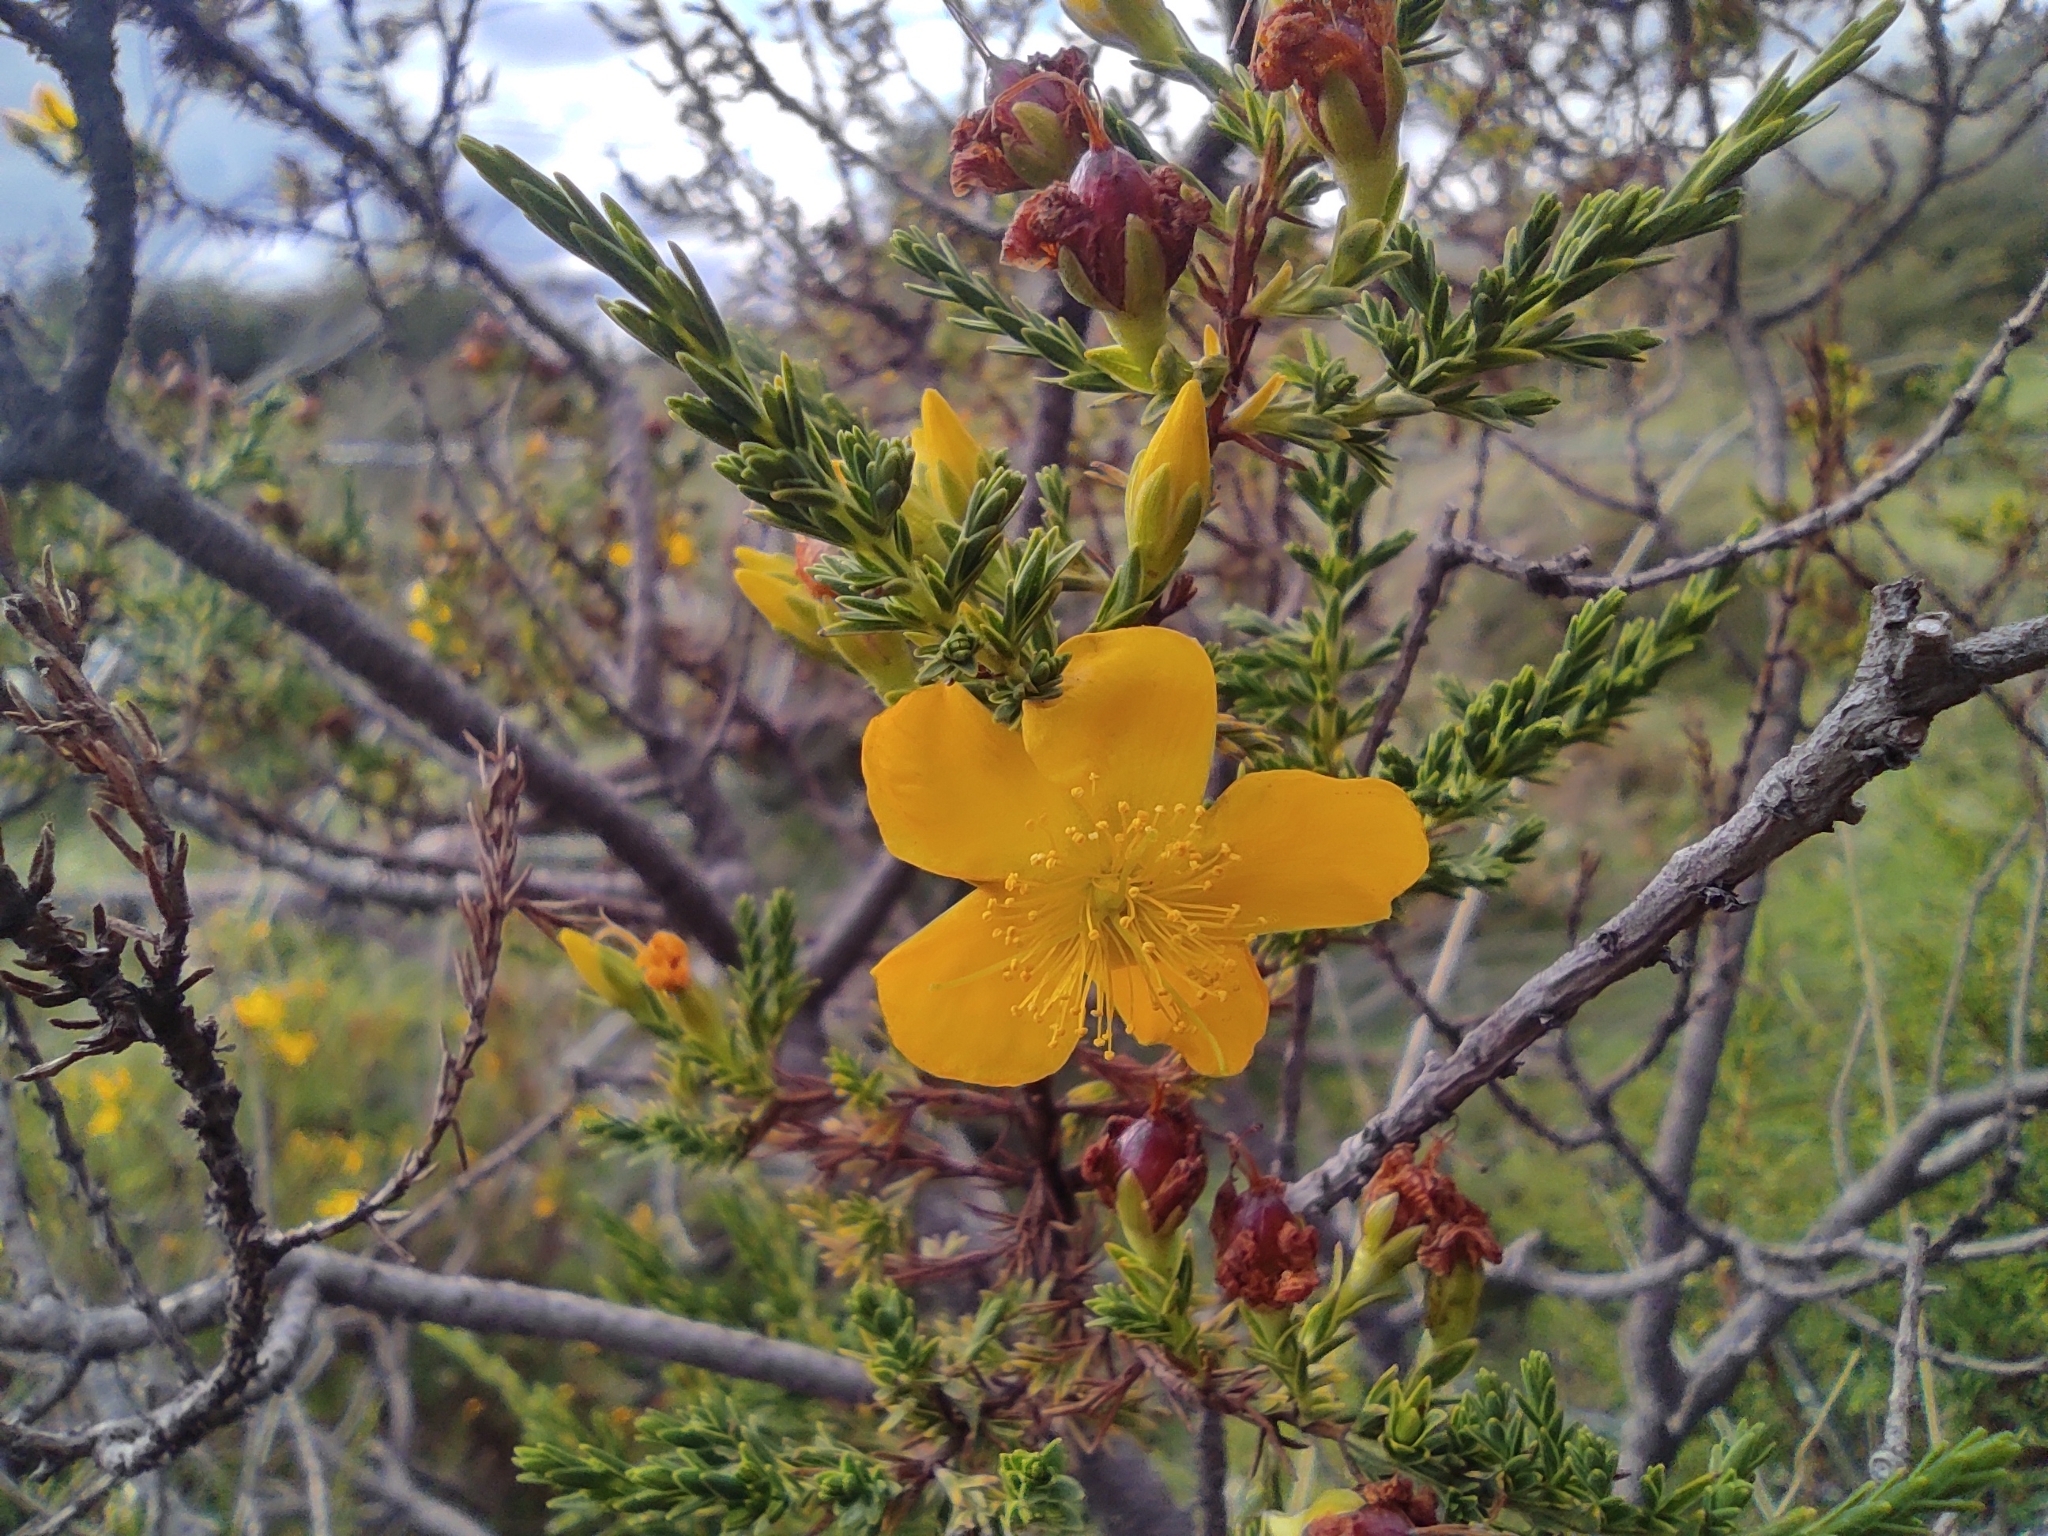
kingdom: Plantae
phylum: Tracheophyta
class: Magnoliopsida
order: Malpighiales
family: Hypericaceae
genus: Hypericum
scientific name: Hypericum laricifolium
